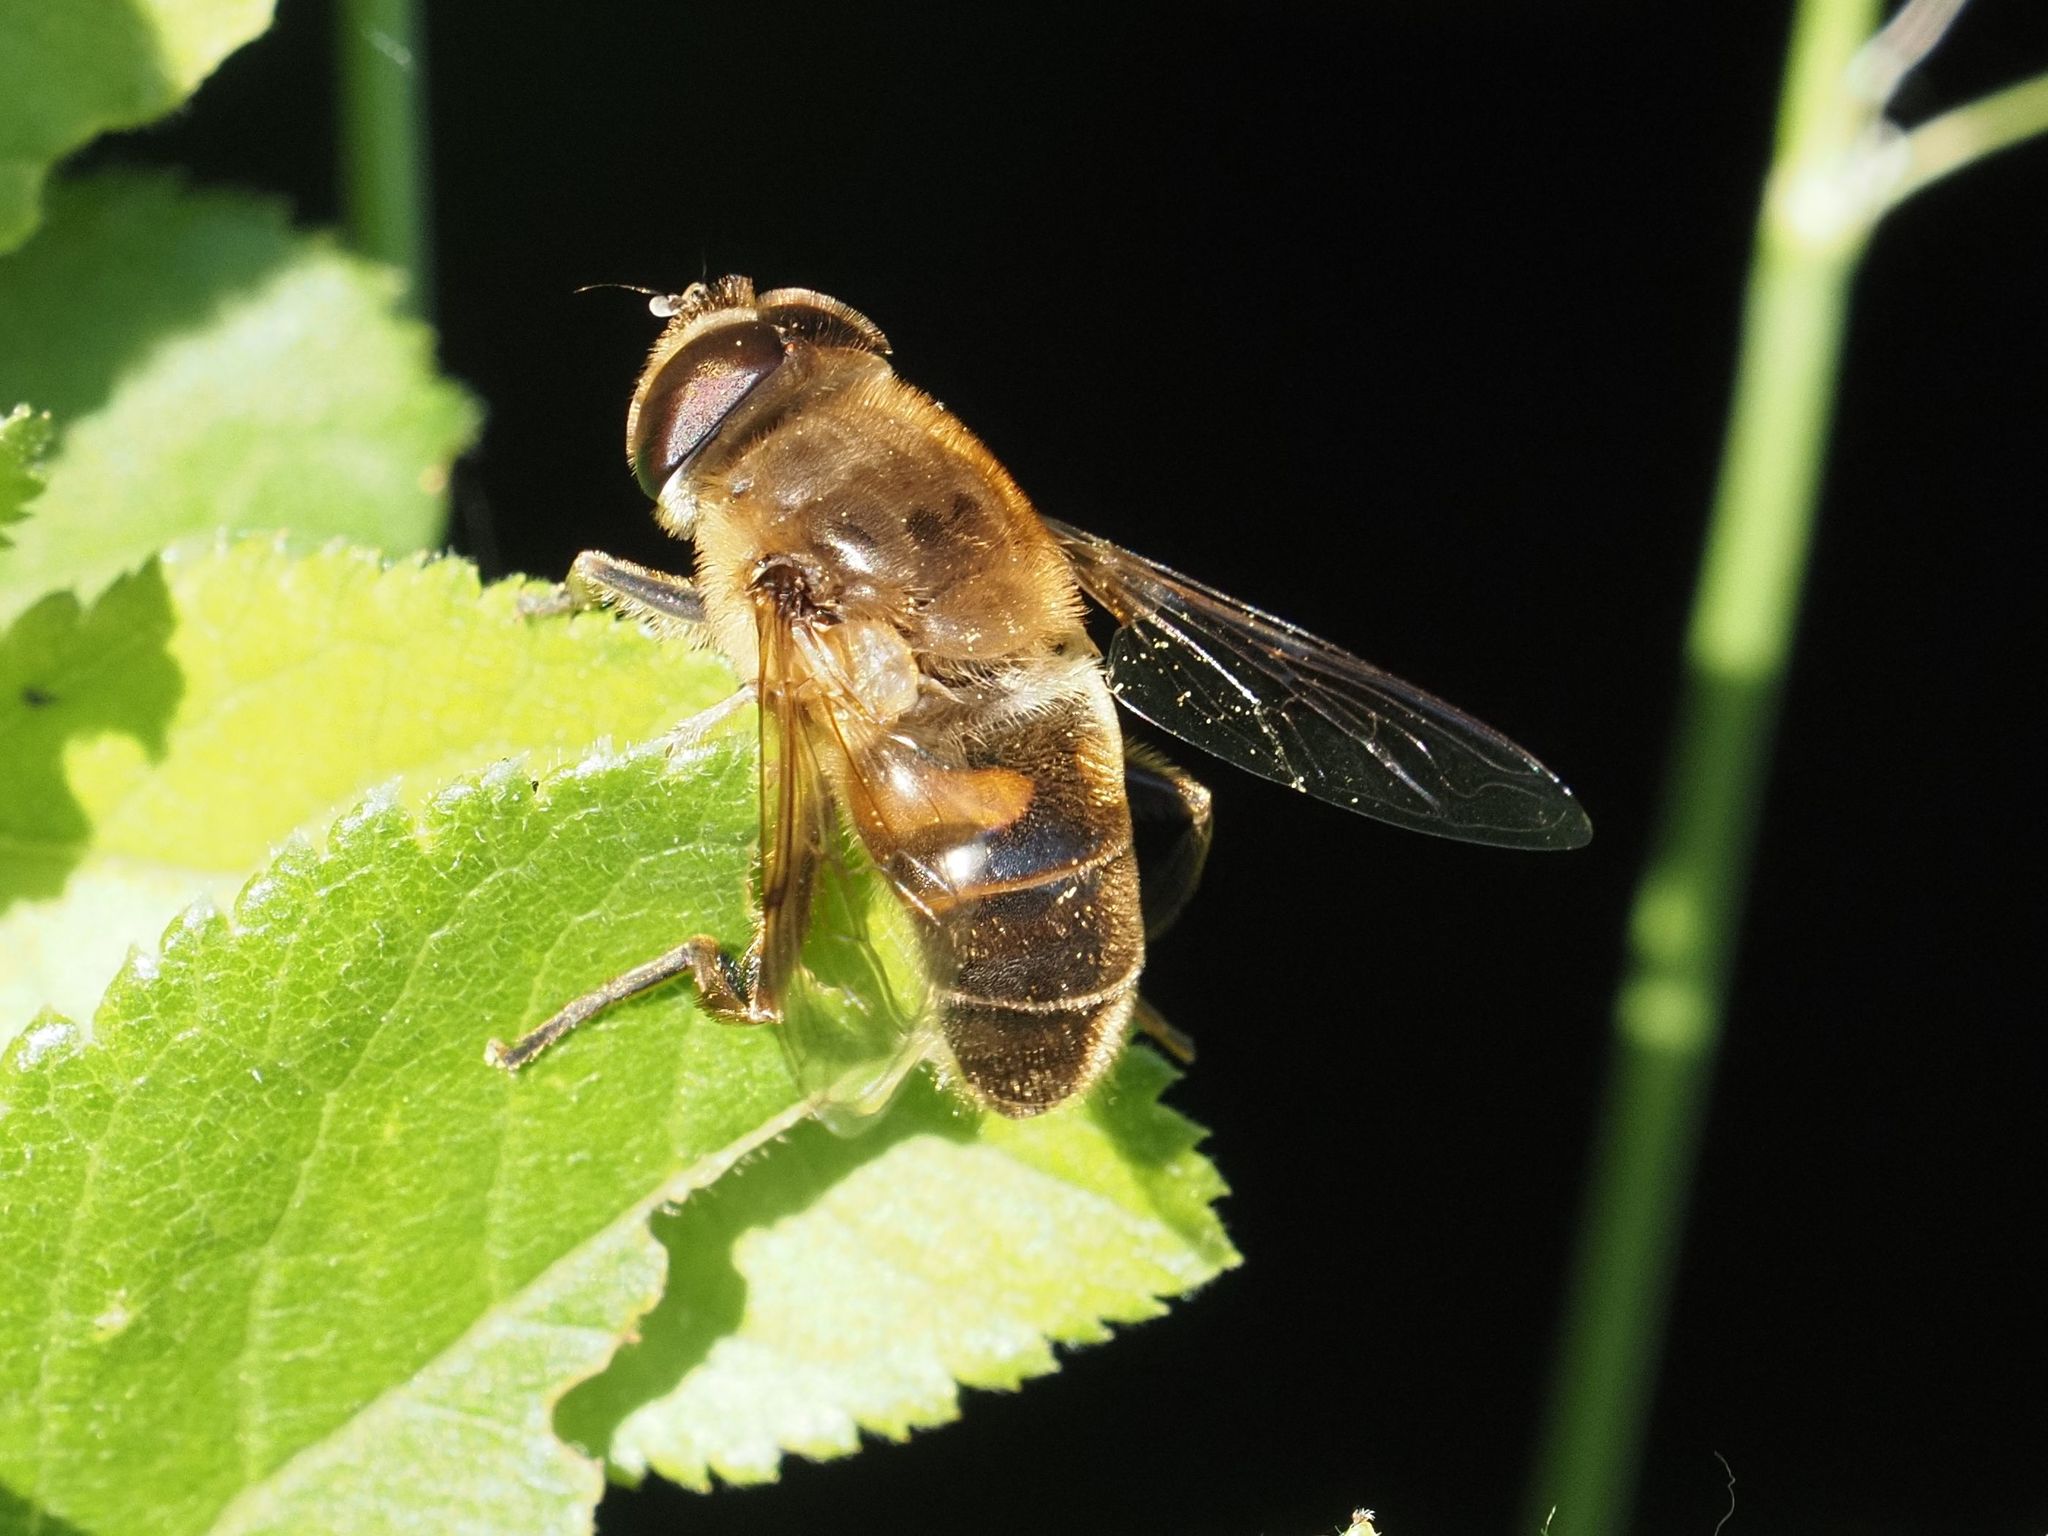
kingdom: Animalia
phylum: Arthropoda
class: Insecta
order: Diptera
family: Syrphidae
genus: Eristalis
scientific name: Eristalis tenax
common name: Drone fly
